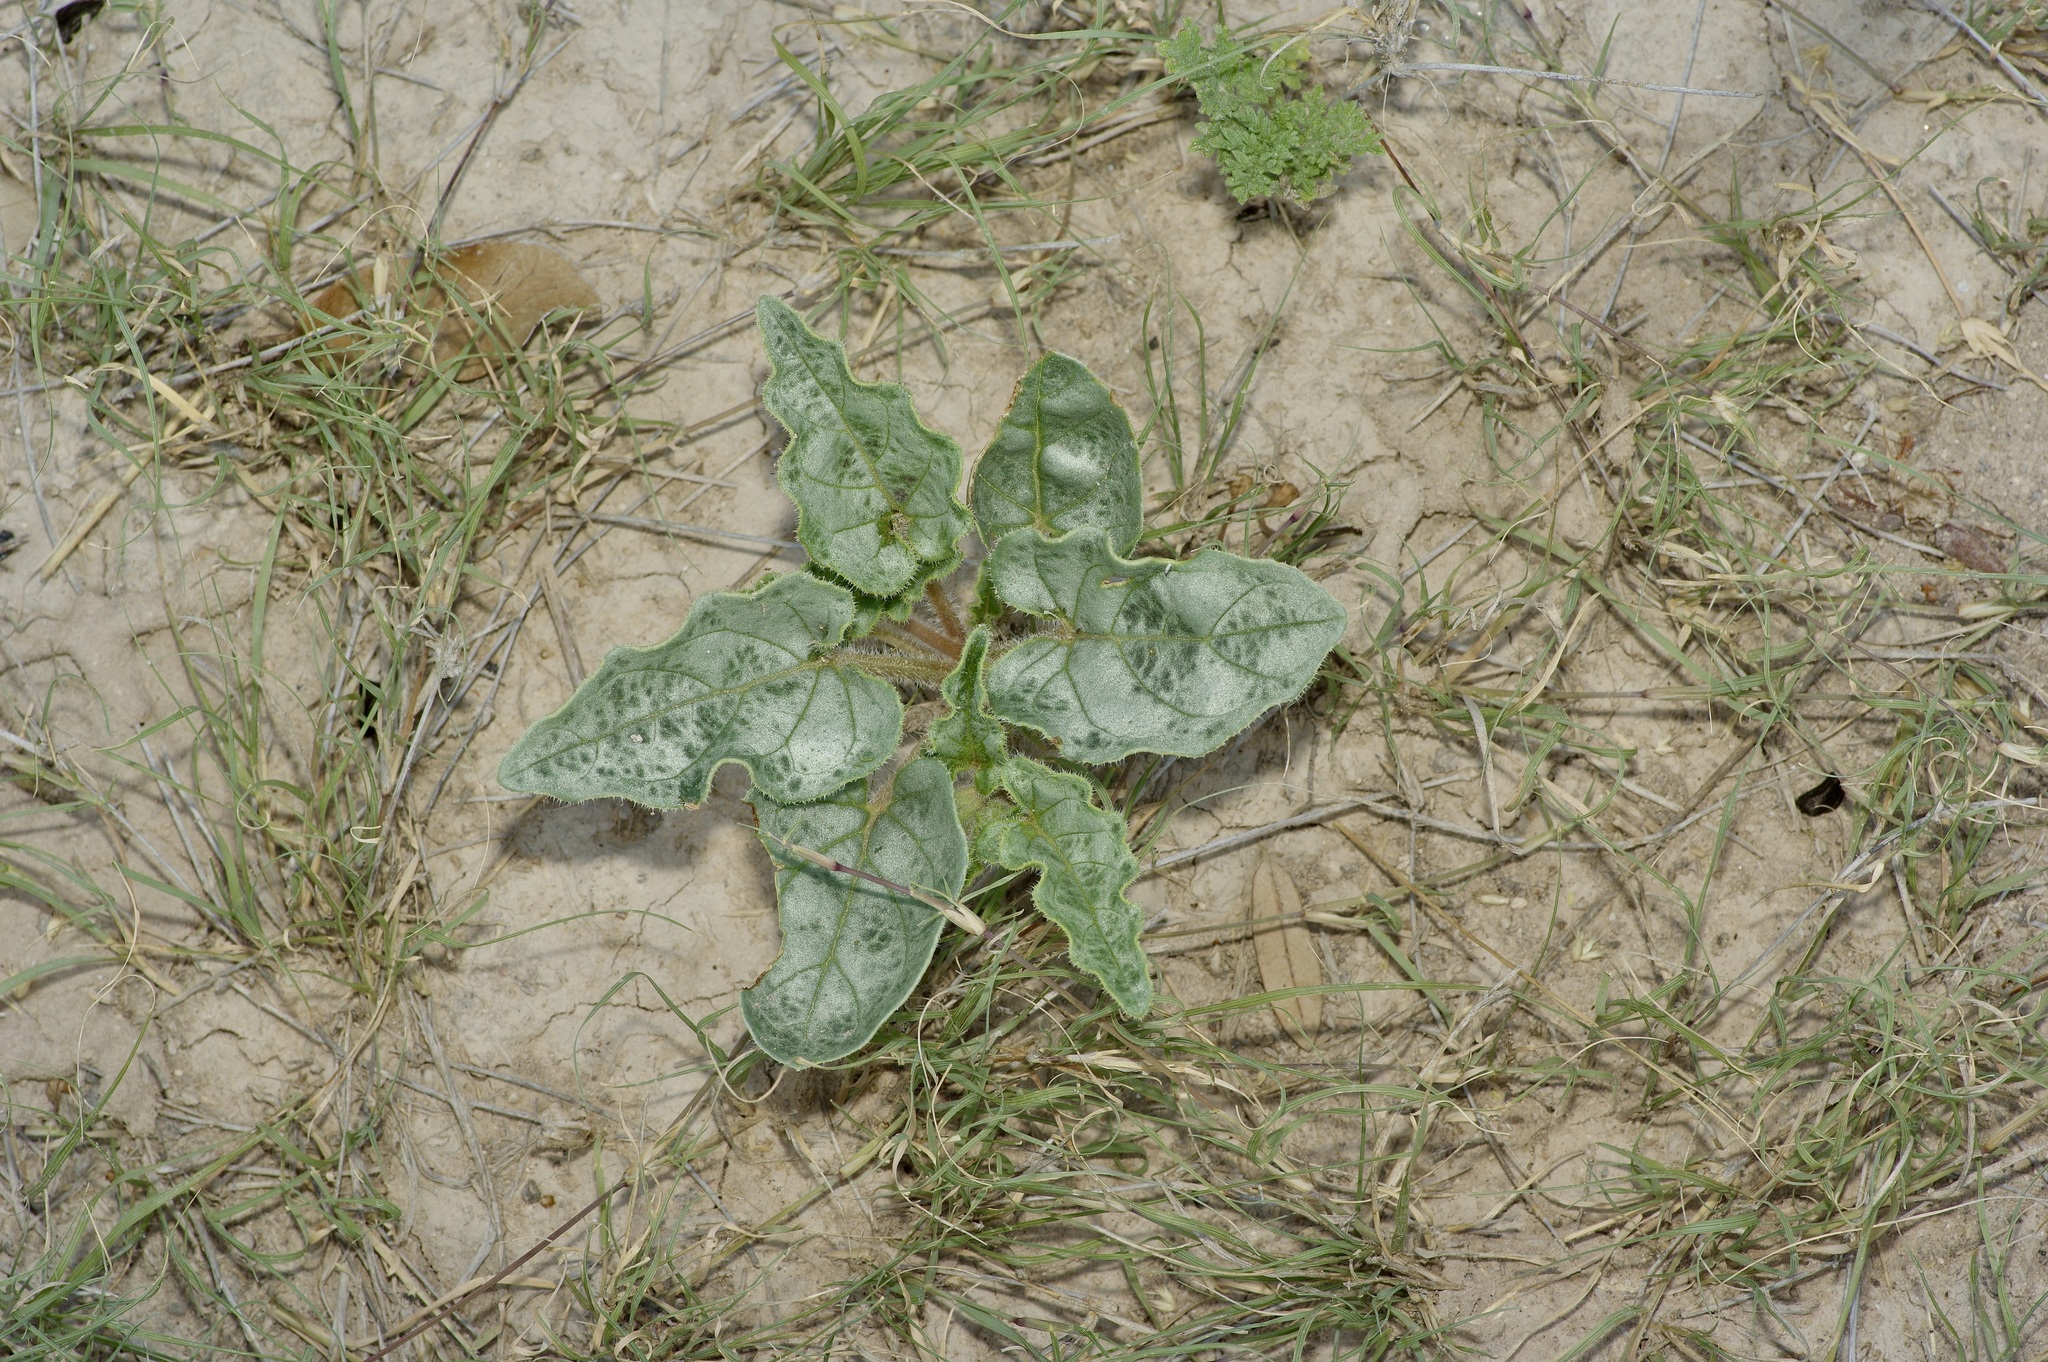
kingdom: Plantae
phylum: Tracheophyta
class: Magnoliopsida
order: Caryophyllales
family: Nyctaginaceae
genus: Nyctaginia
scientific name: Nyctaginia capitata
